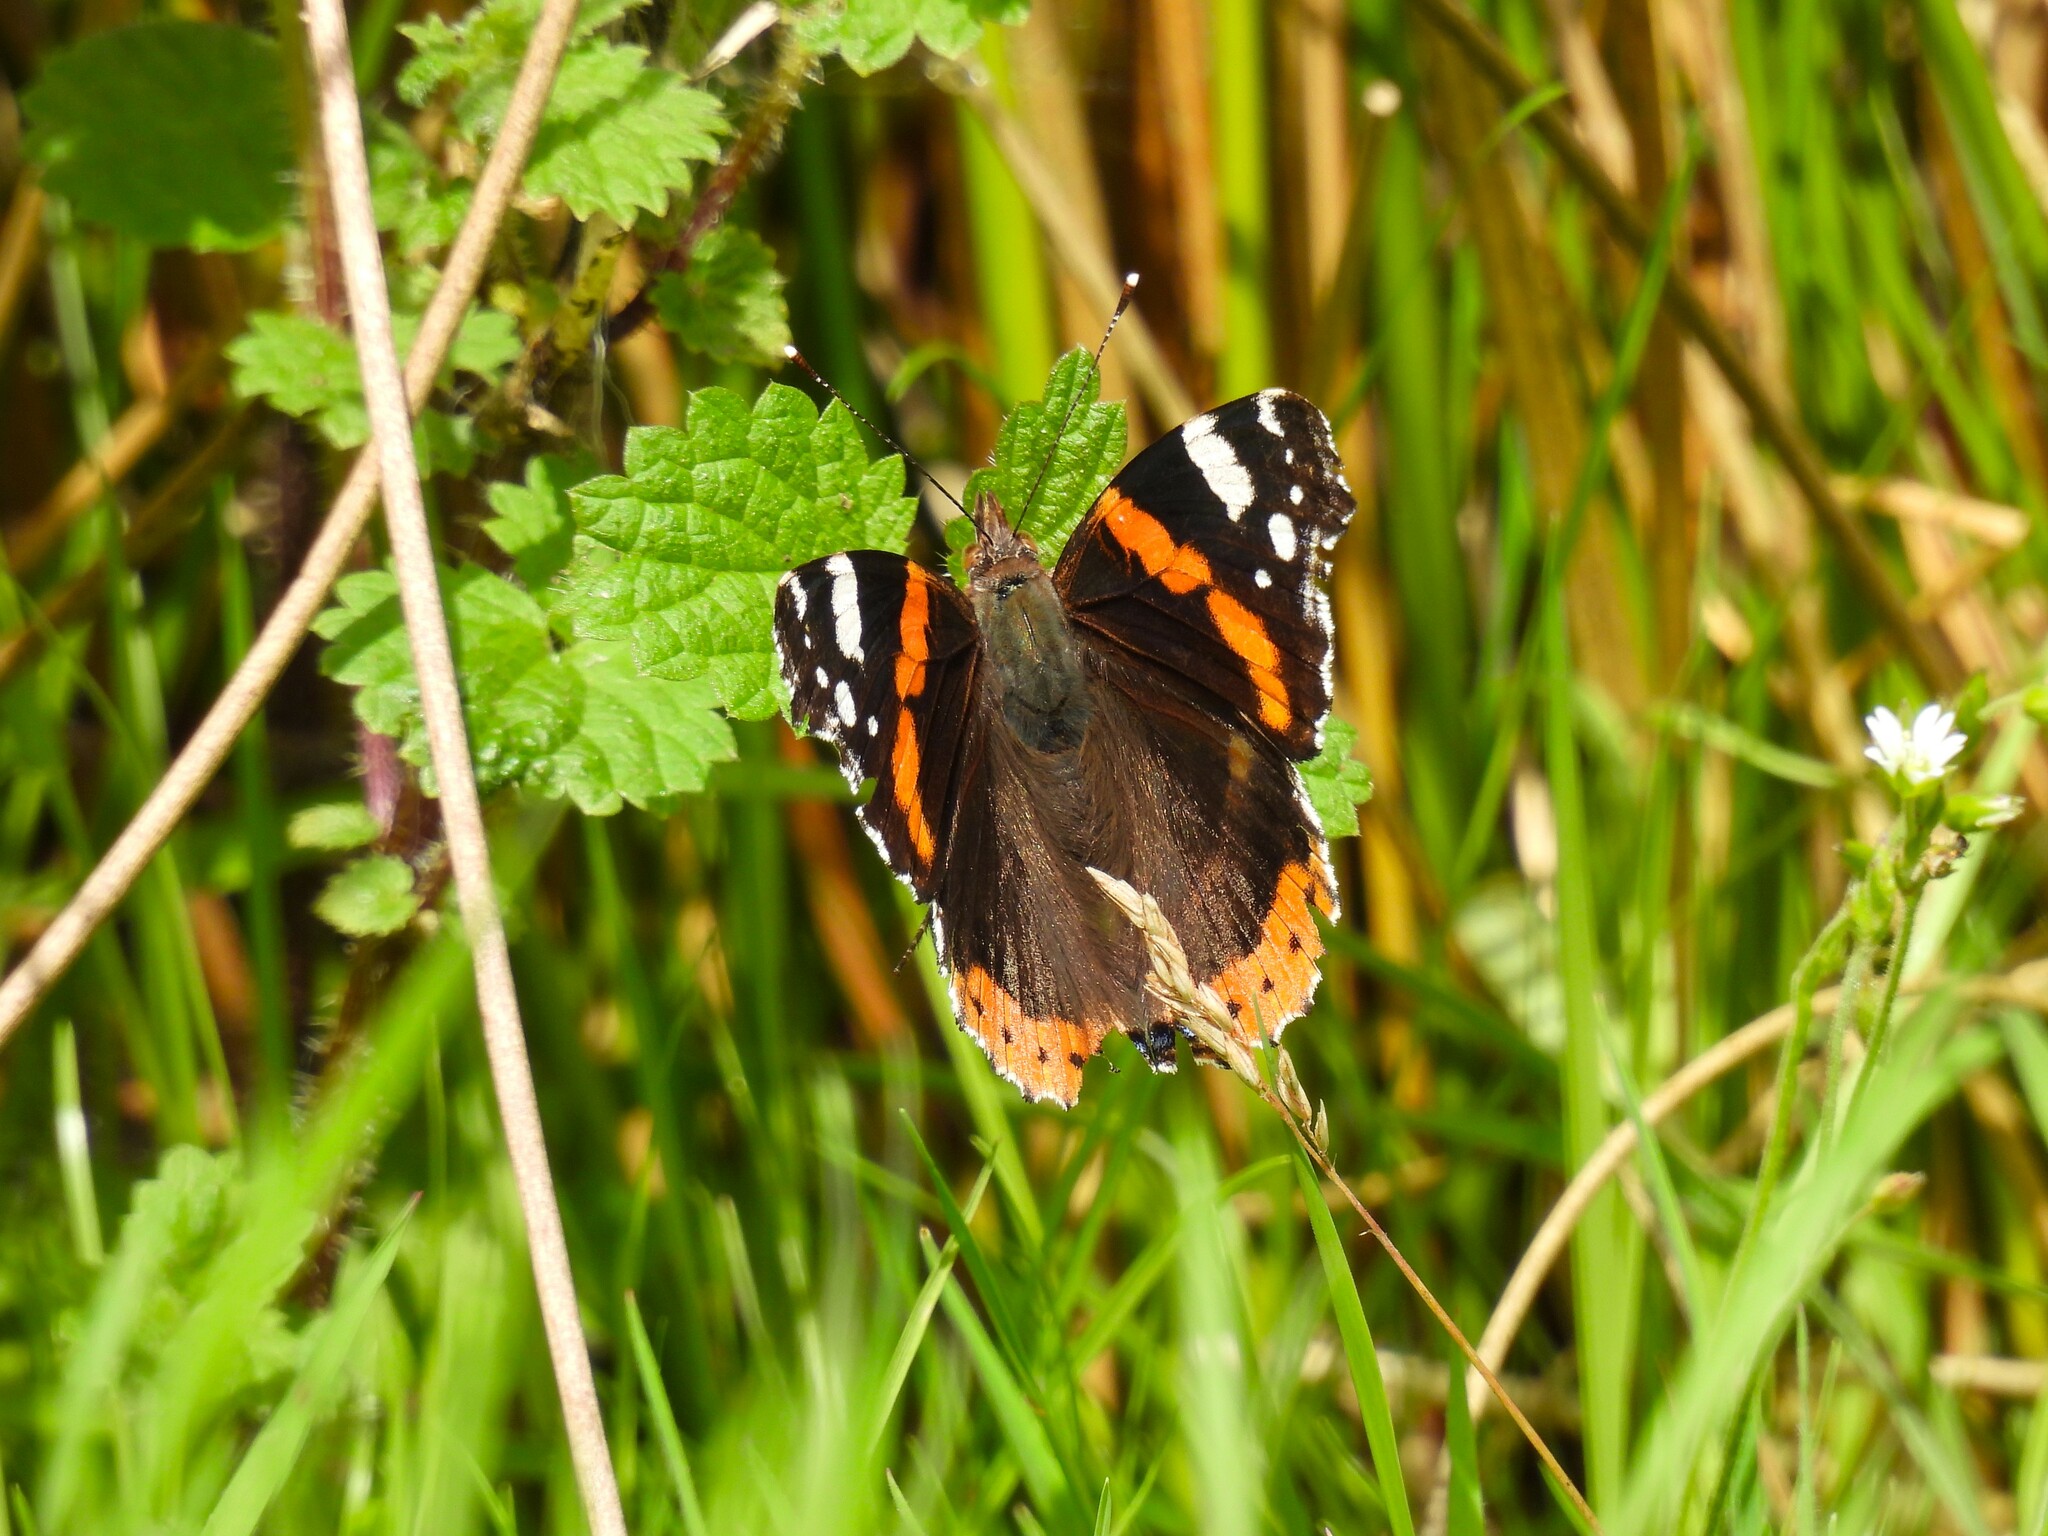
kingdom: Animalia
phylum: Arthropoda
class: Insecta
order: Lepidoptera
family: Nymphalidae
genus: Vanessa
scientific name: Vanessa atalanta
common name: Red admiral
